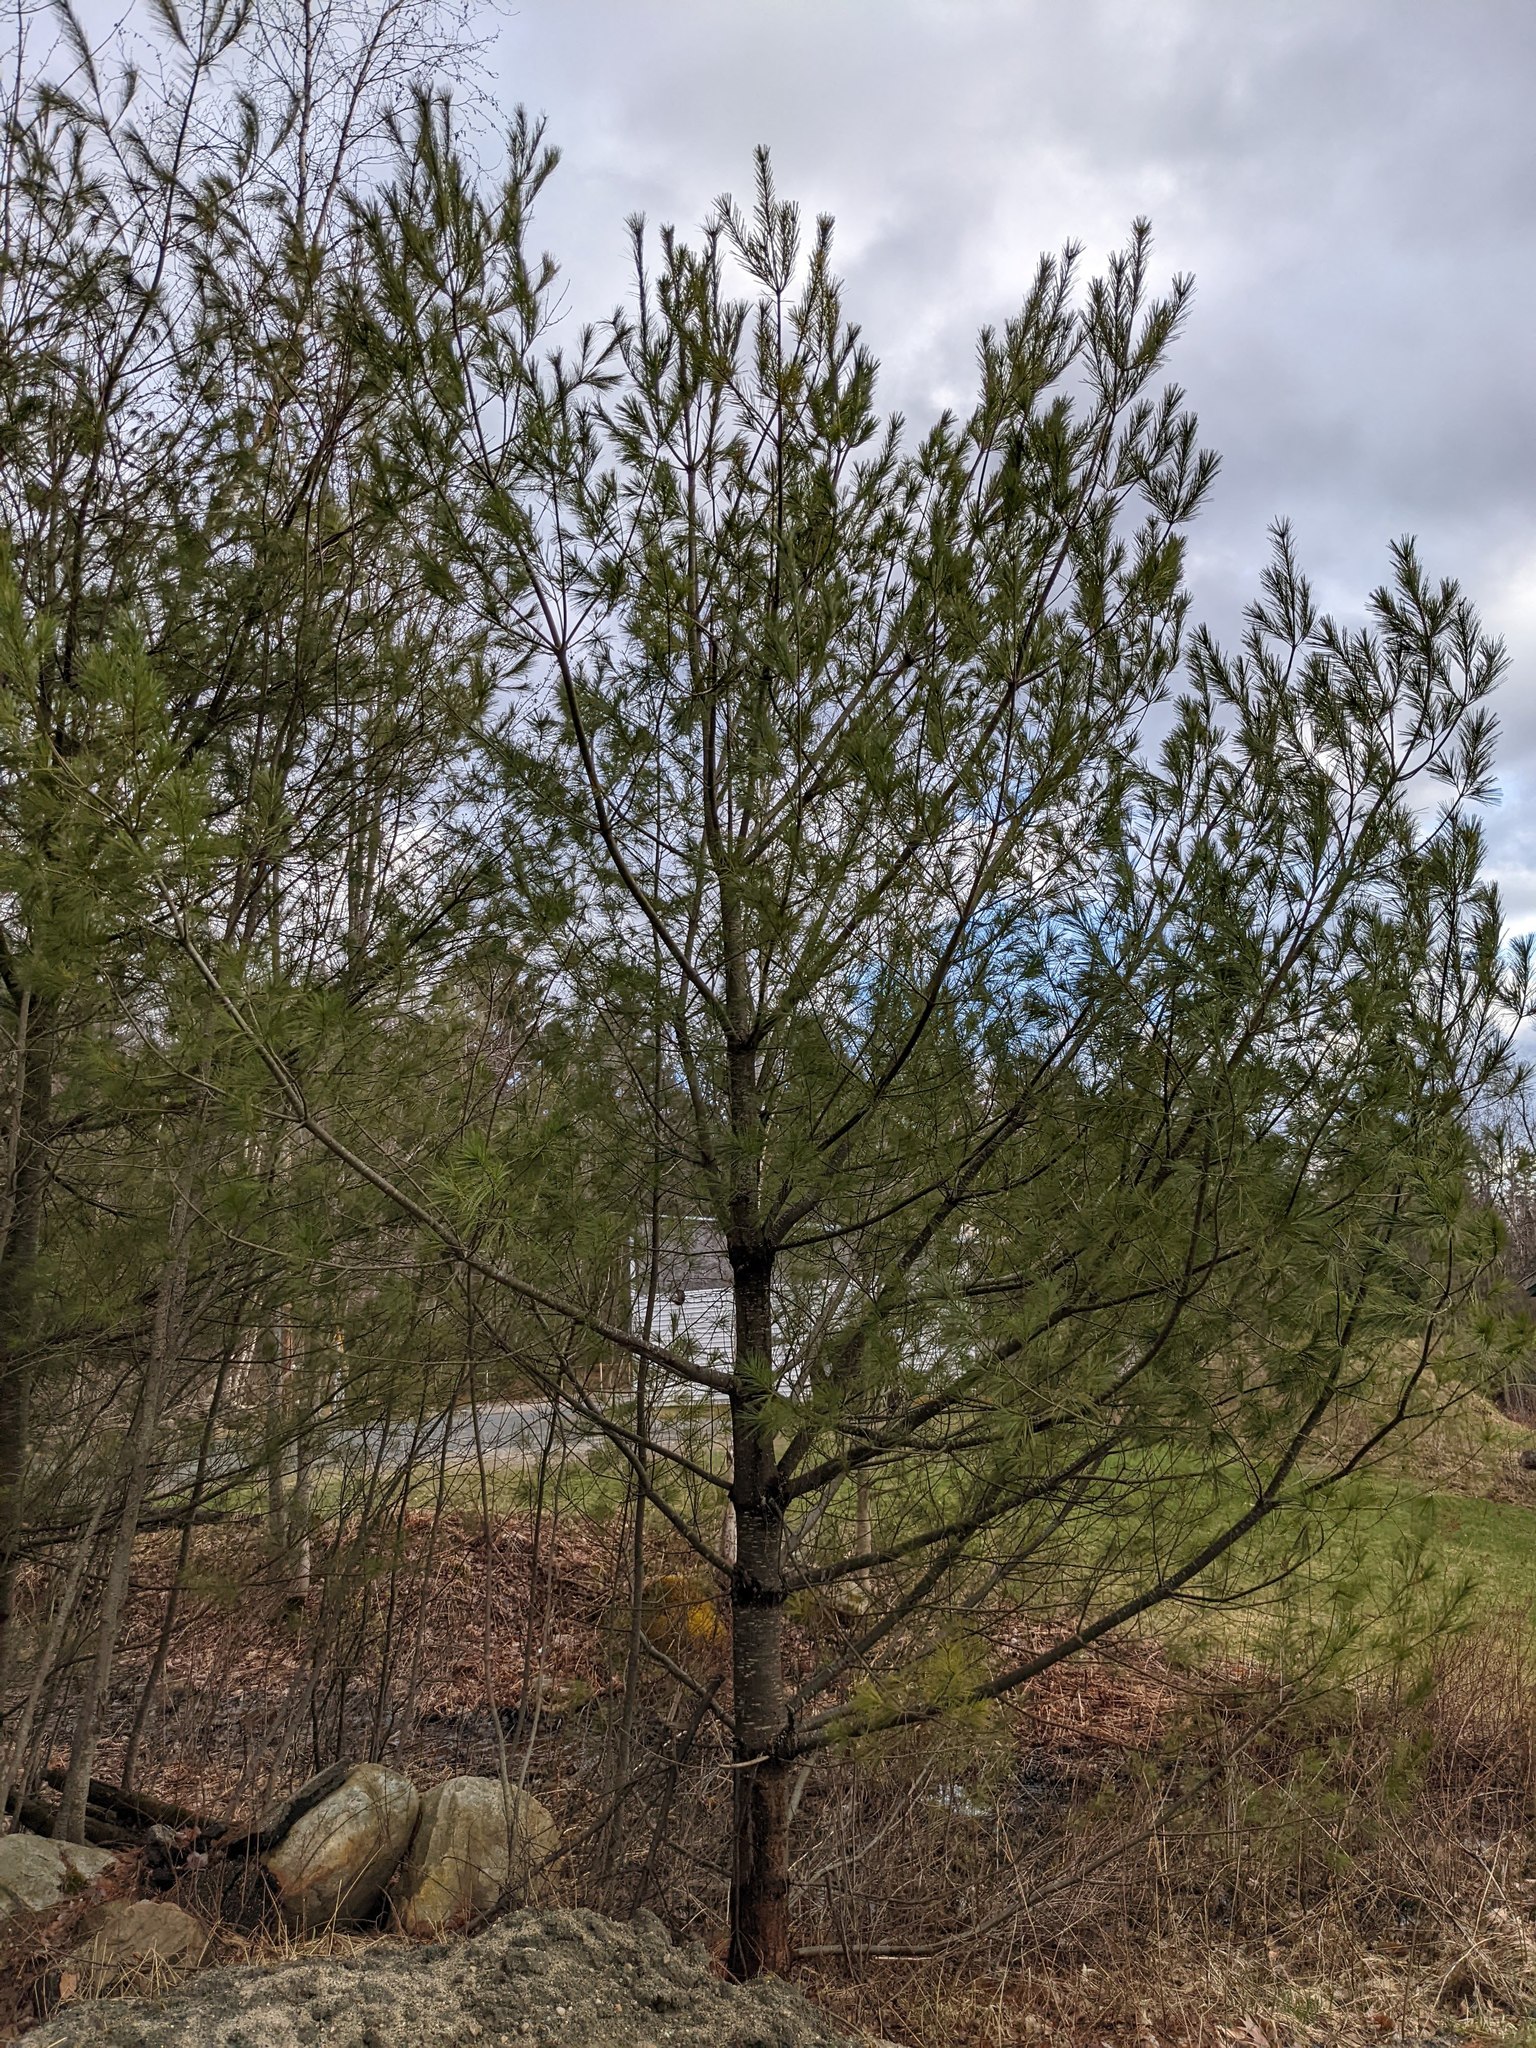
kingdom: Plantae
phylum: Tracheophyta
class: Pinopsida
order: Pinales
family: Pinaceae
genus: Pinus
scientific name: Pinus strobus
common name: Weymouth pine
